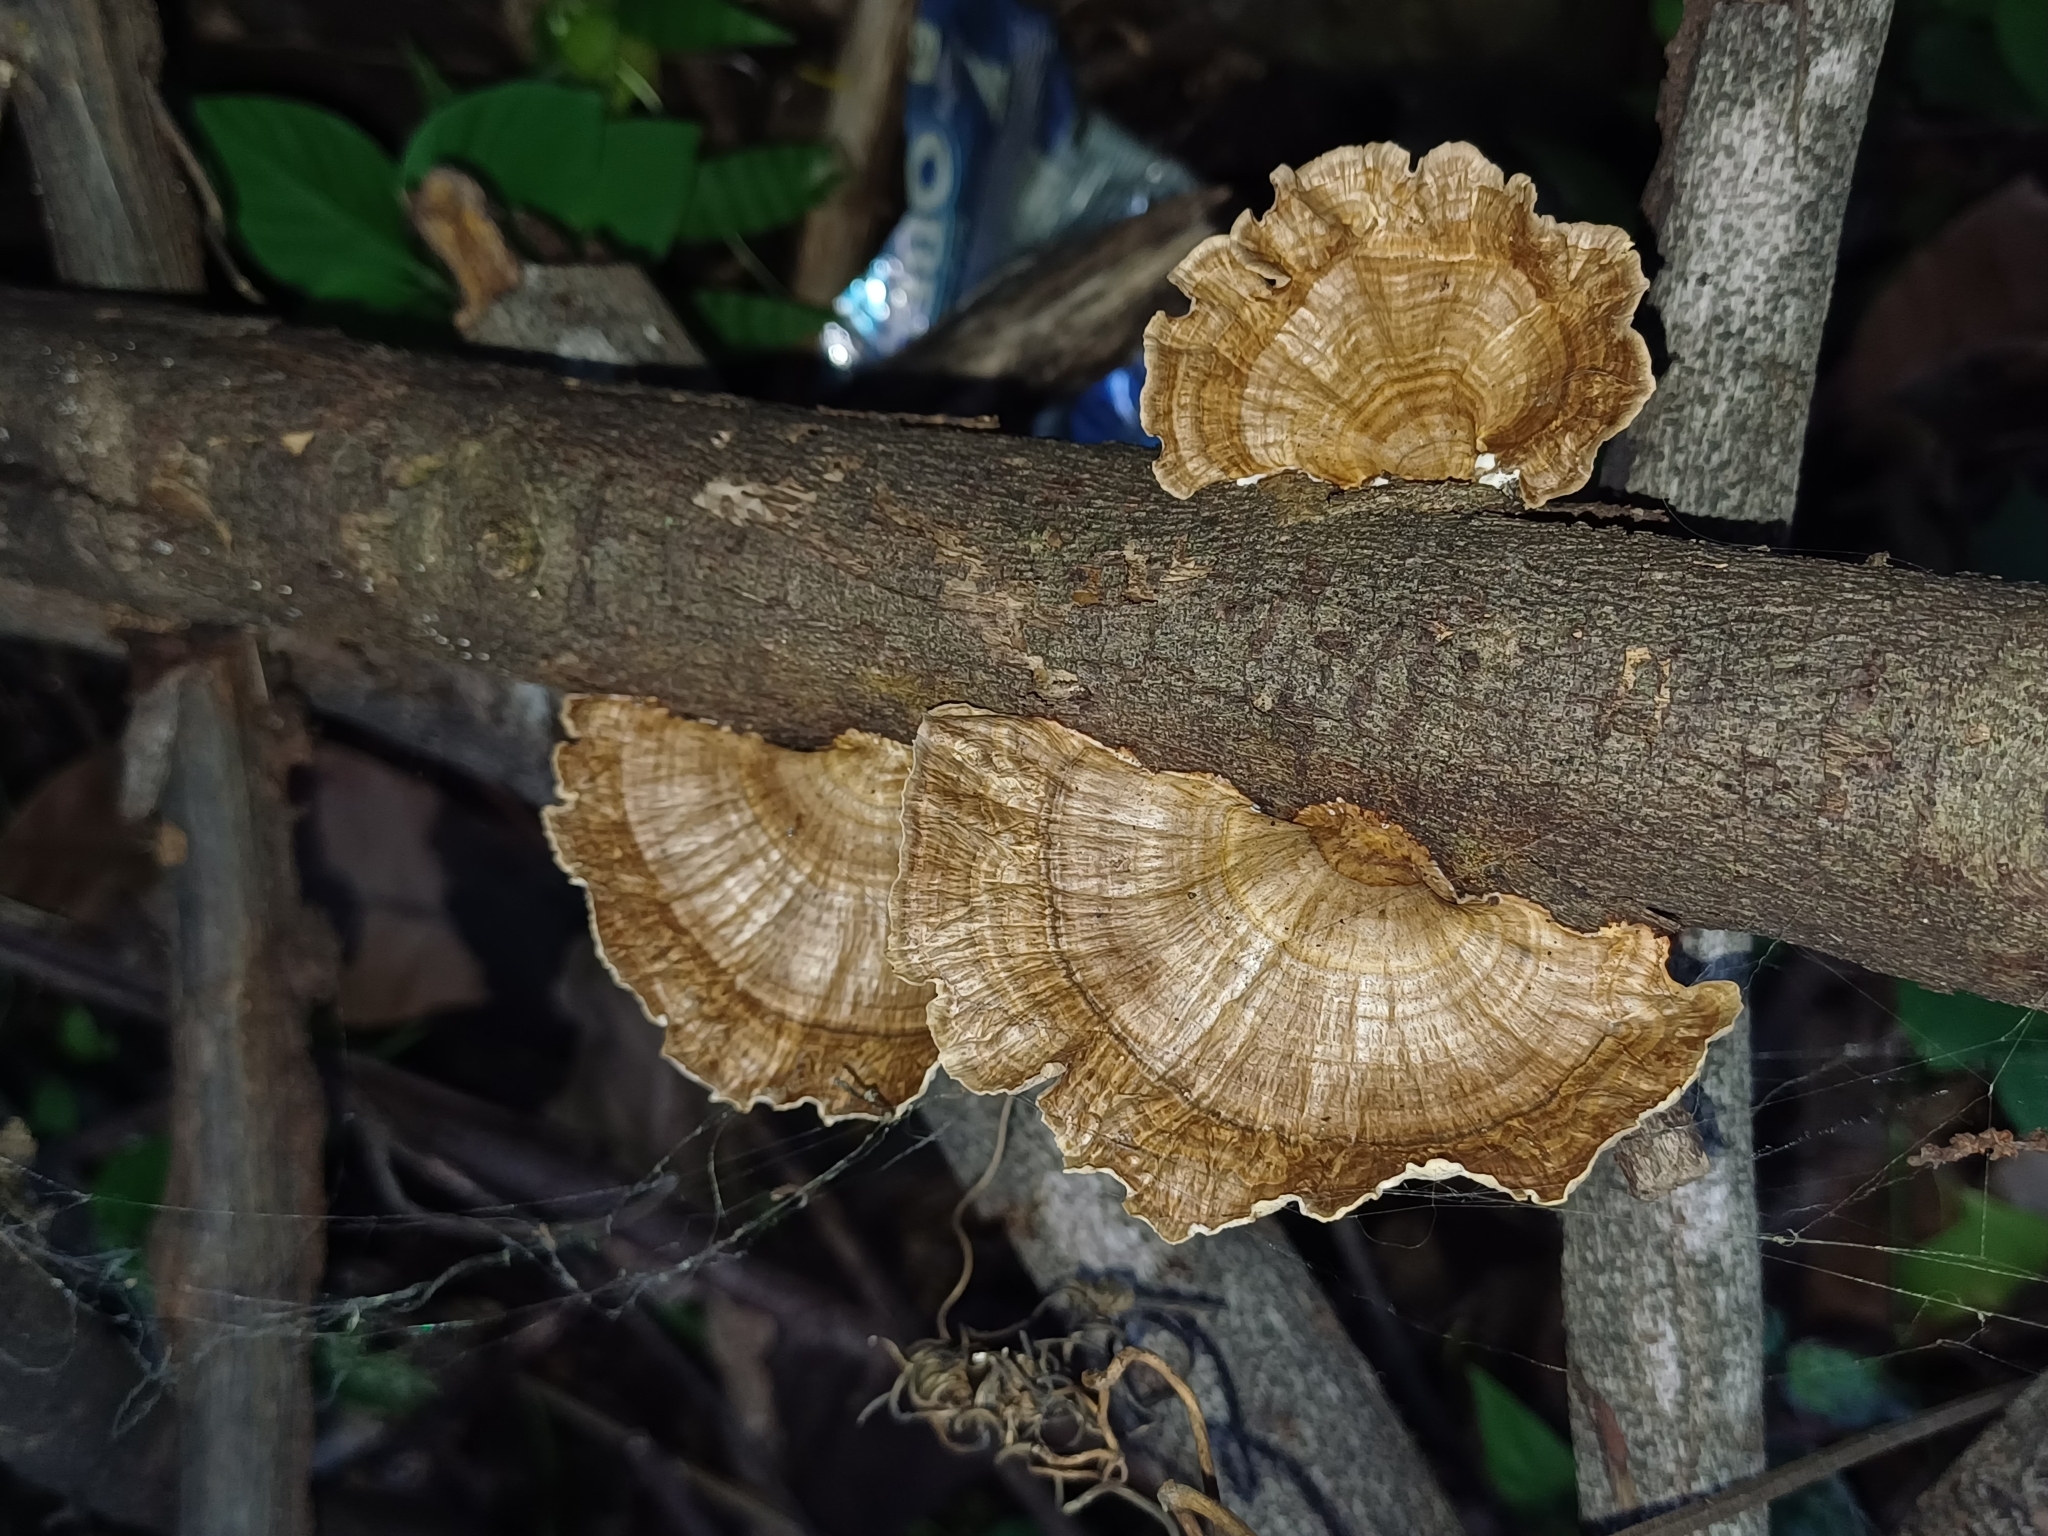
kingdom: Fungi
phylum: Basidiomycota
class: Agaricomycetes
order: Polyporales
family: Polyporaceae
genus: Trametes
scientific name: Trametes variegata
